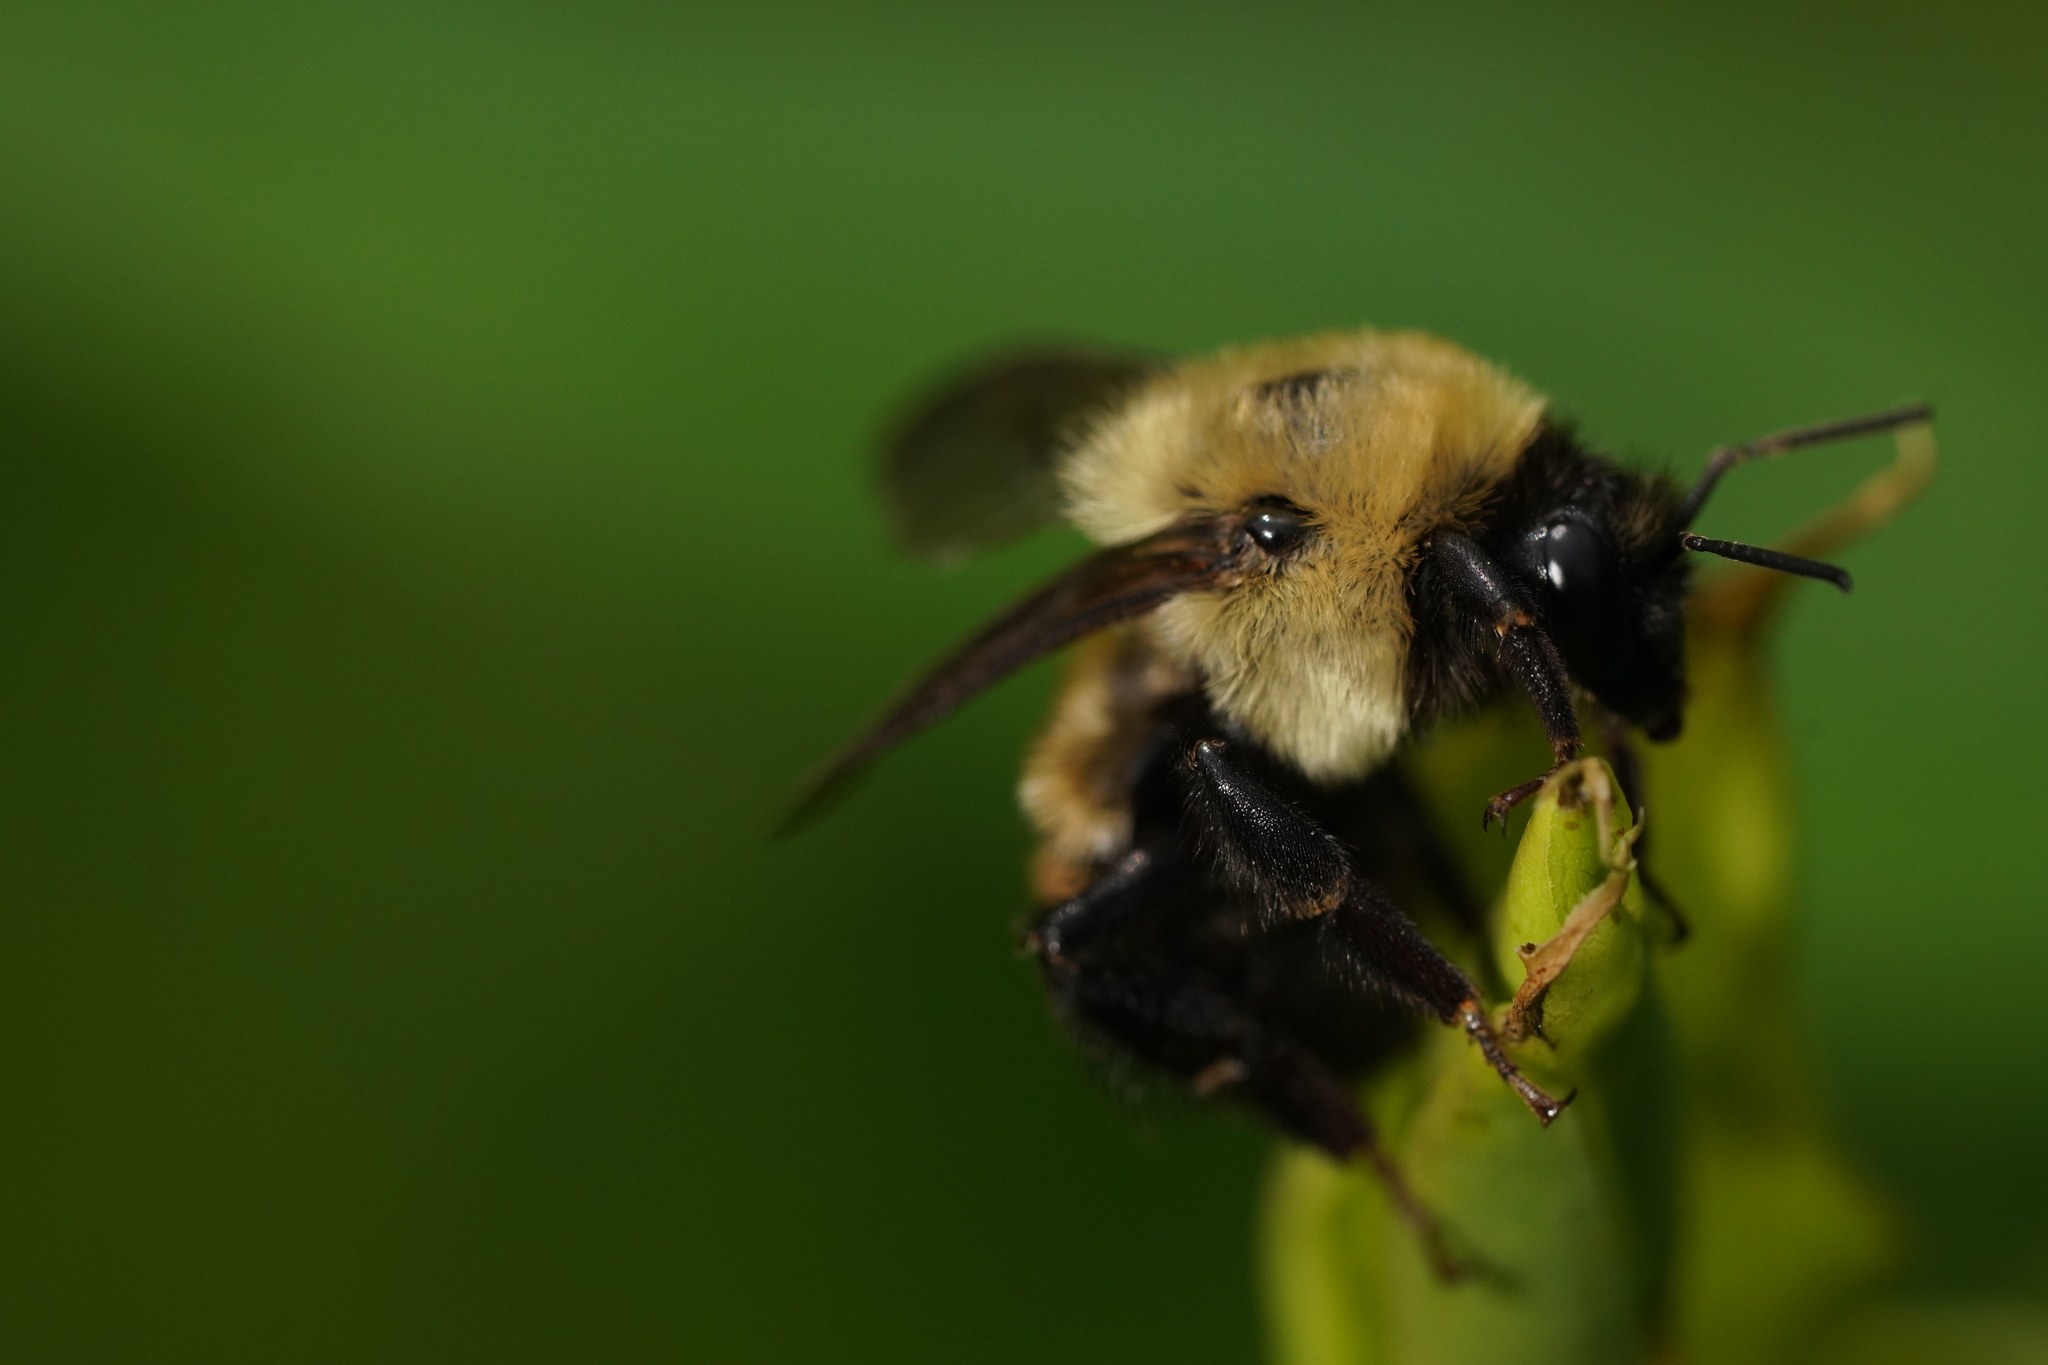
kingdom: Animalia
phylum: Arthropoda
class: Insecta
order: Hymenoptera
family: Apidae
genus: Bombus
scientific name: Bombus griseocollis
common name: Brown-belted bumble bee
